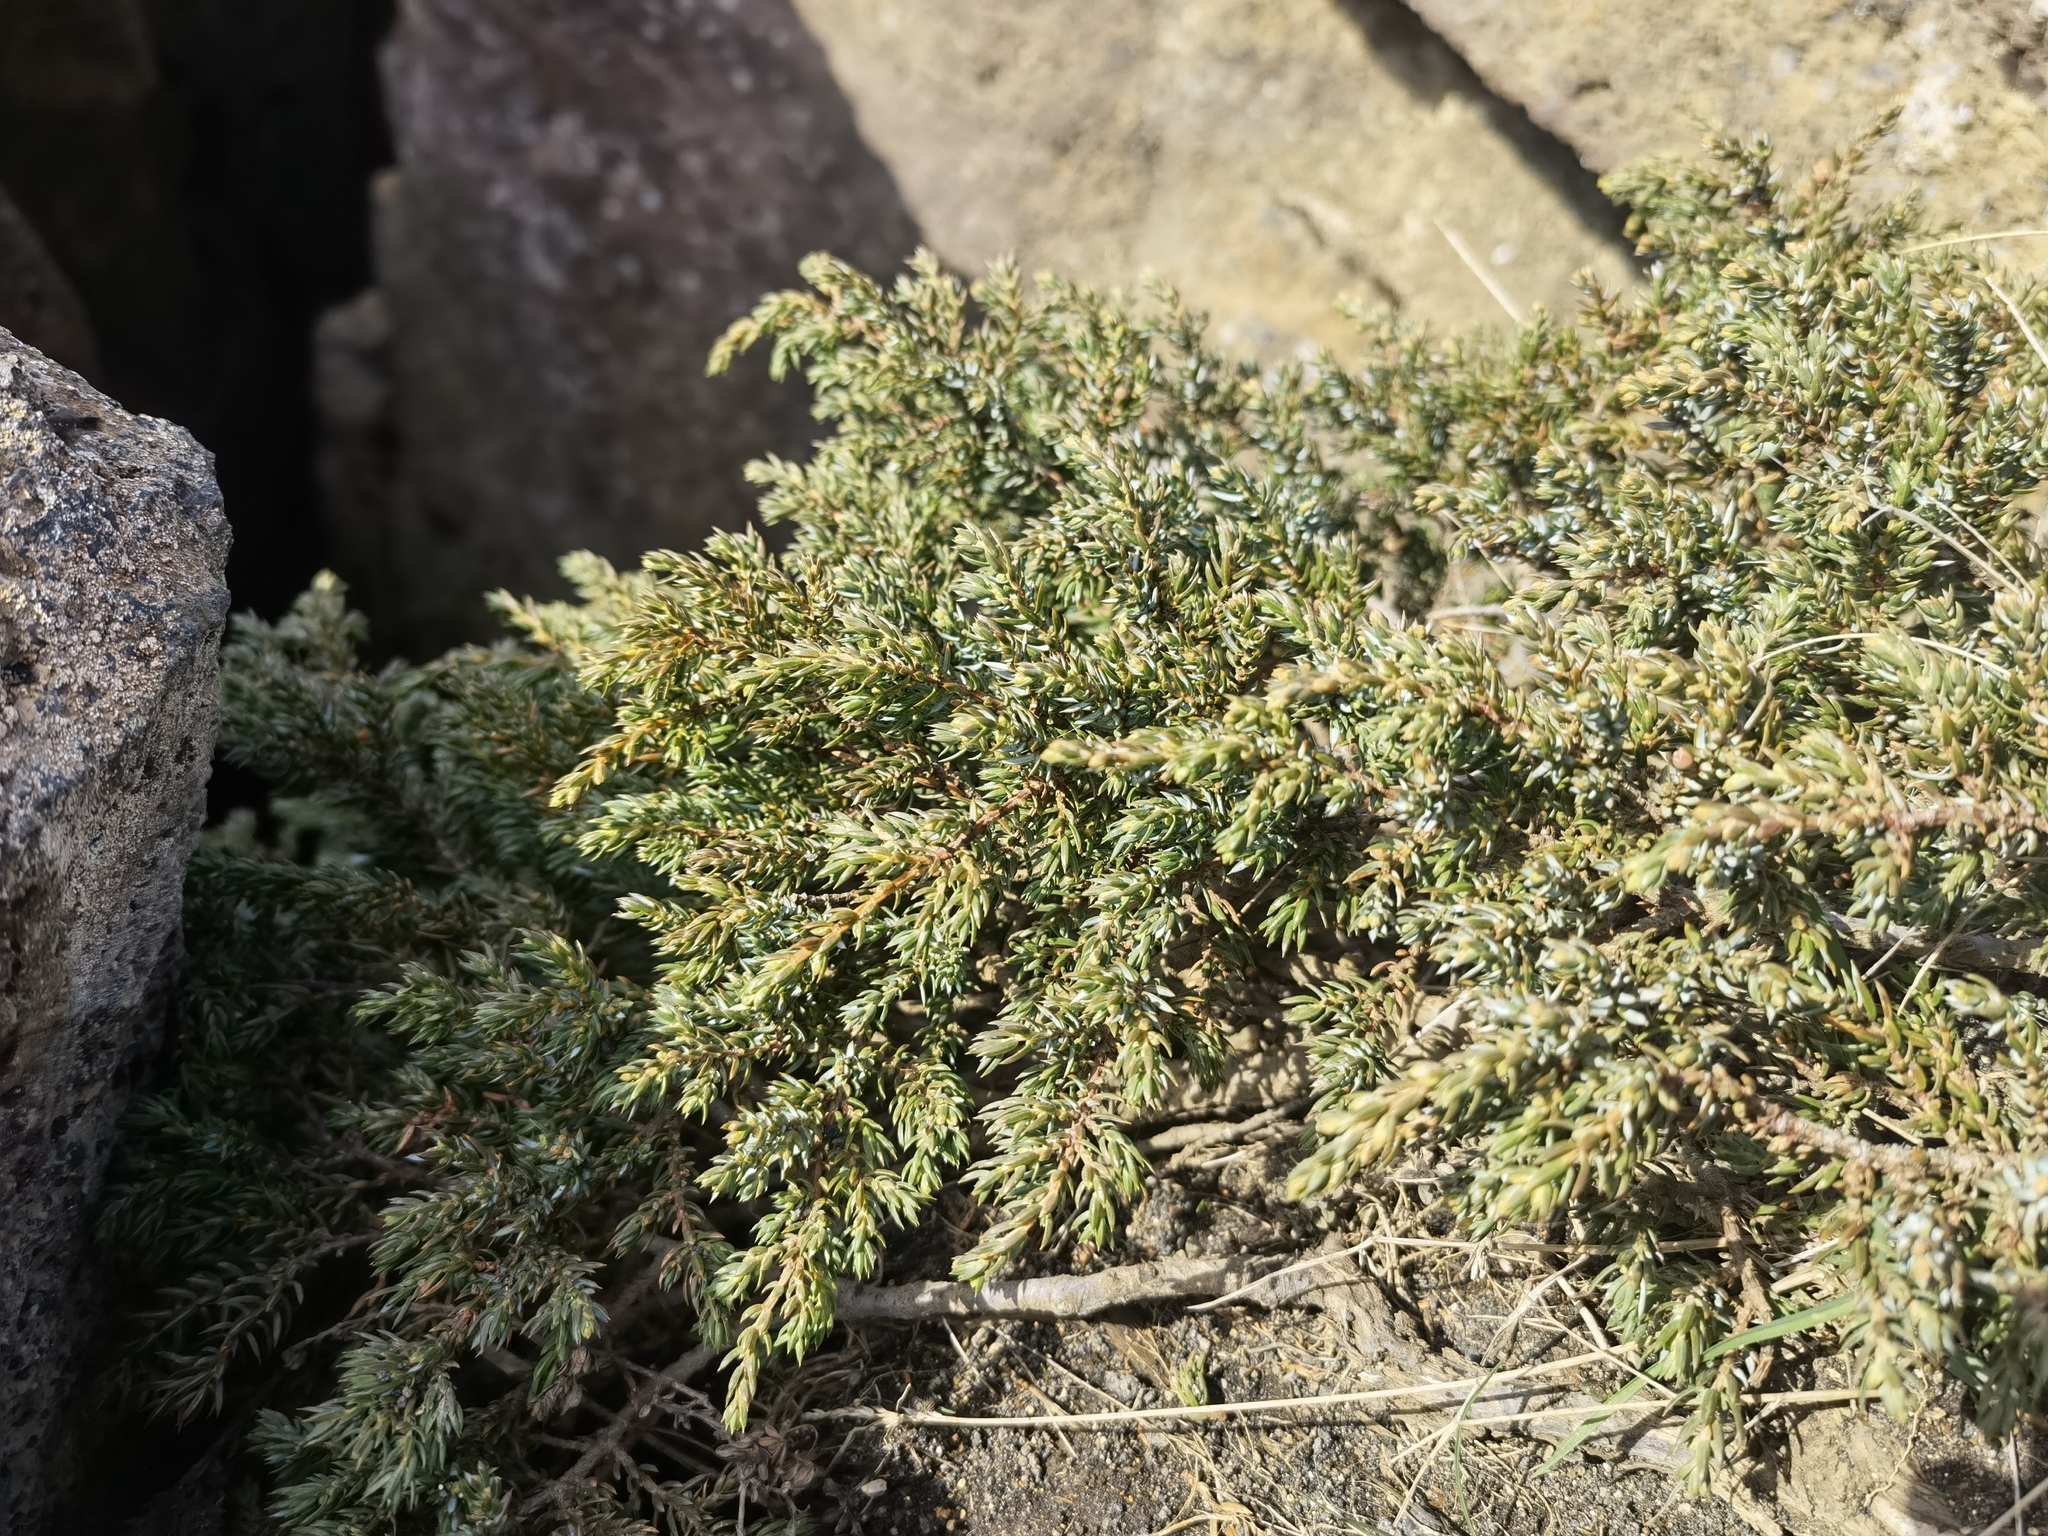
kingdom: Plantae
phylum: Tracheophyta
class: Pinopsida
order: Pinales
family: Cupressaceae
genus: Juniperus
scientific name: Juniperus communis
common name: Common juniper
